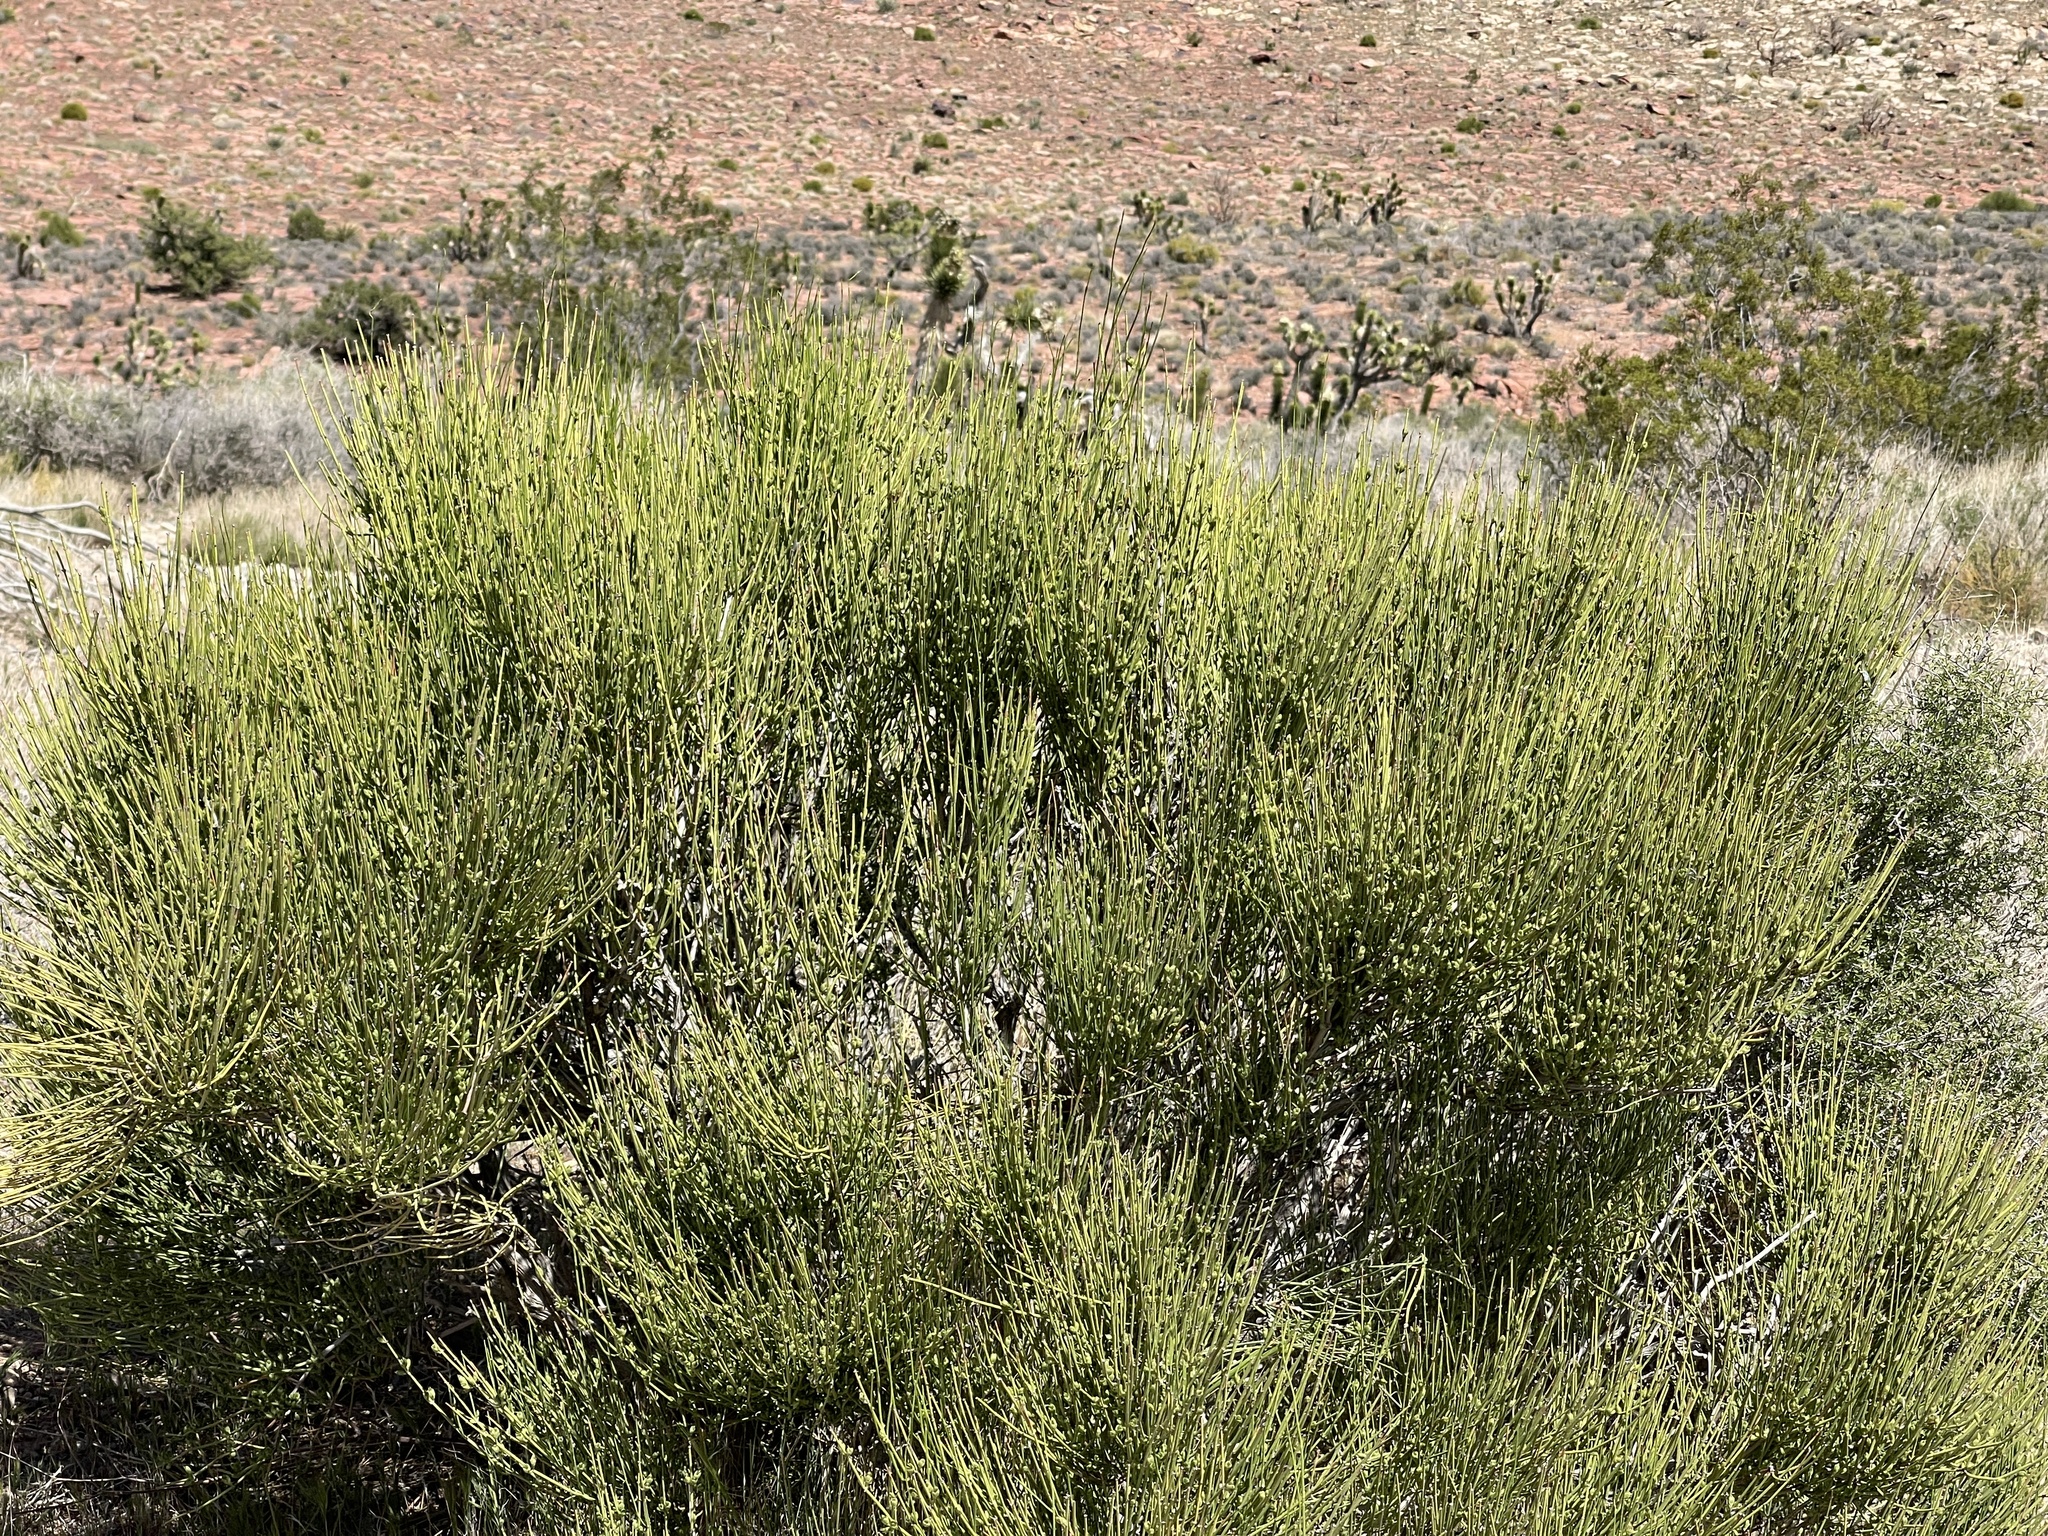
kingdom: Plantae
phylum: Tracheophyta
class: Gnetopsida
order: Ephedrales
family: Ephedraceae
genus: Ephedra
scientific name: Ephedra viridis
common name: Green ephedra
